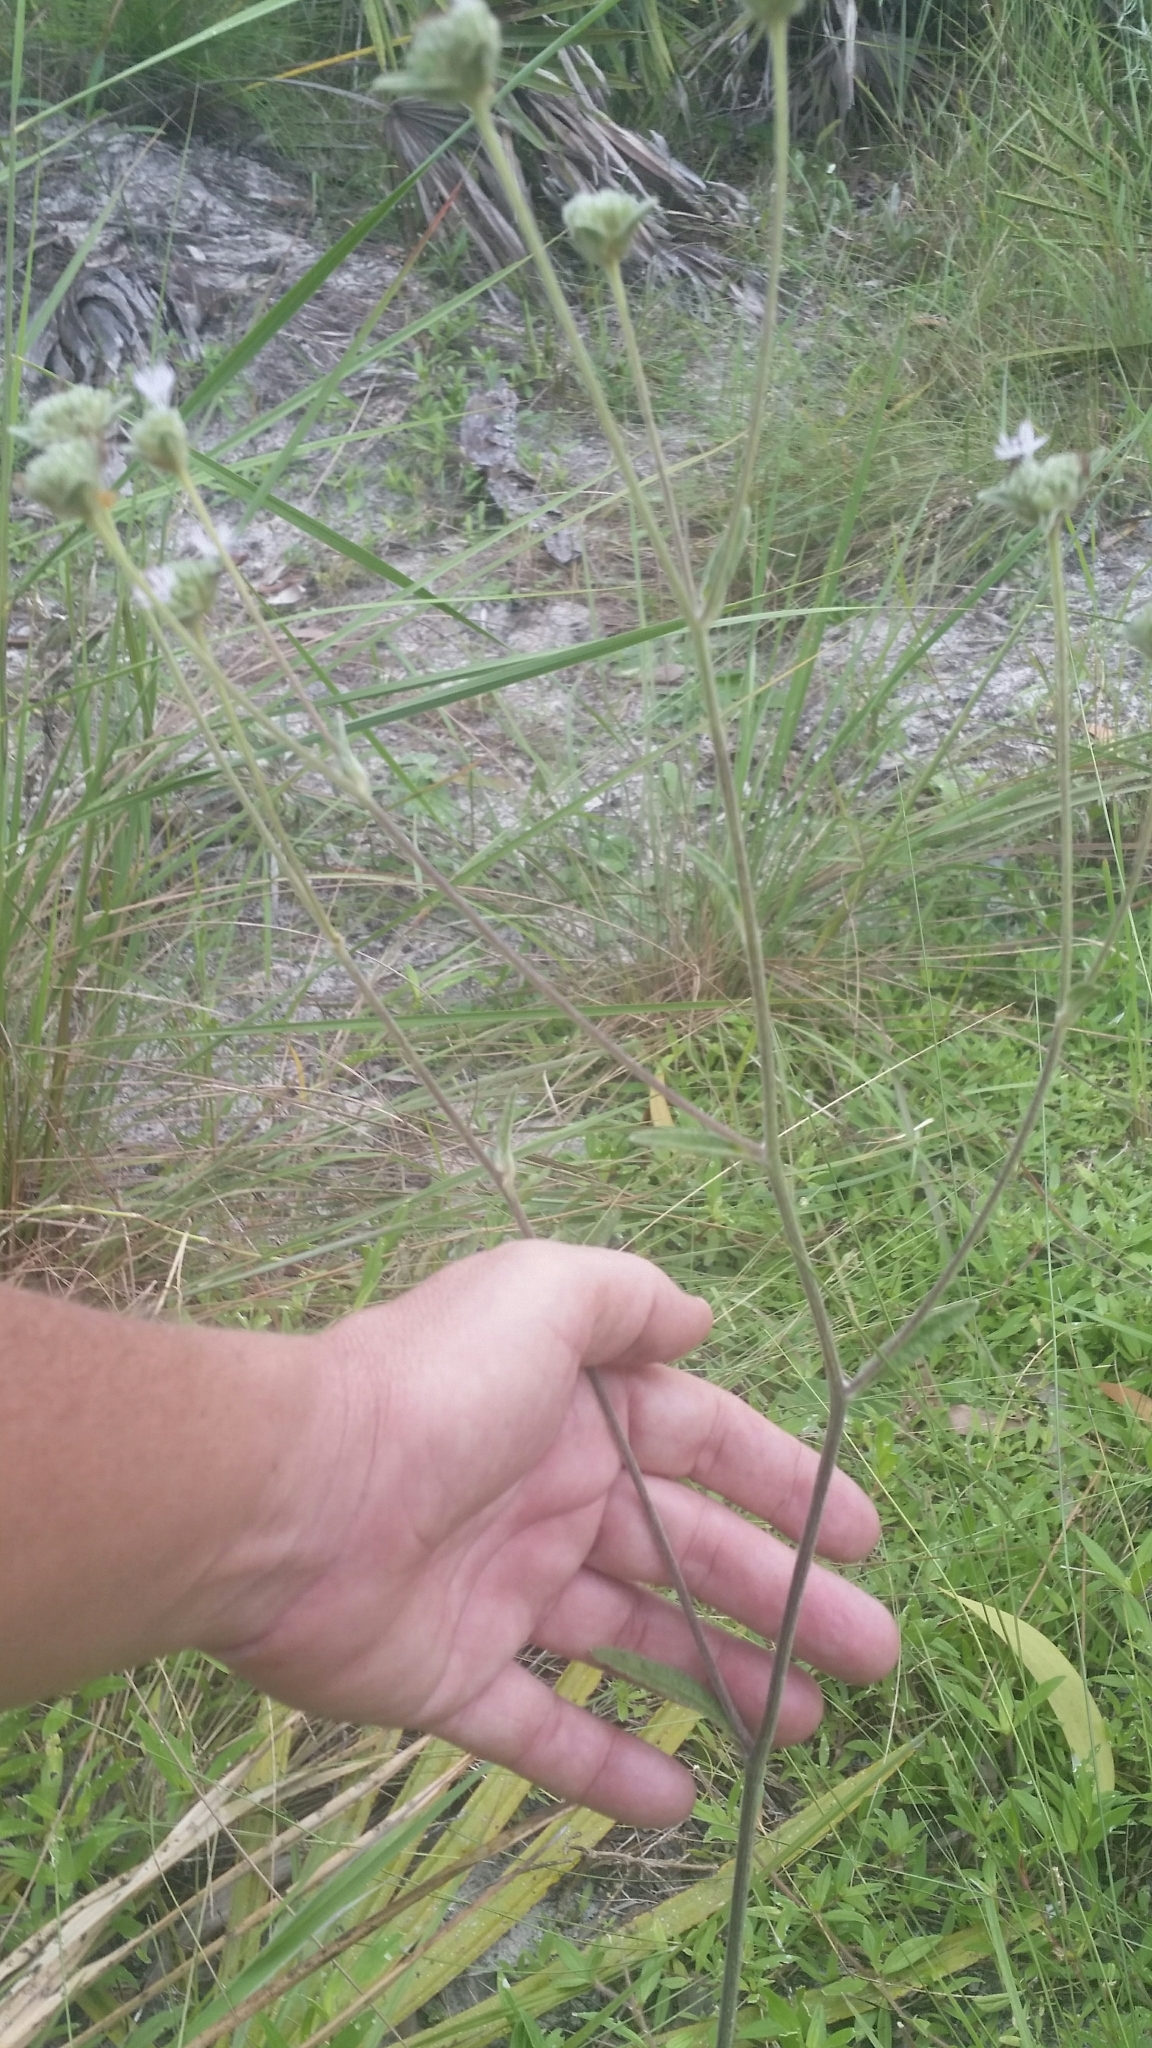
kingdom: Plantae
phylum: Tracheophyta
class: Magnoliopsida
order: Asterales
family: Asteraceae
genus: Elephantopus
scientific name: Elephantopus elatus
